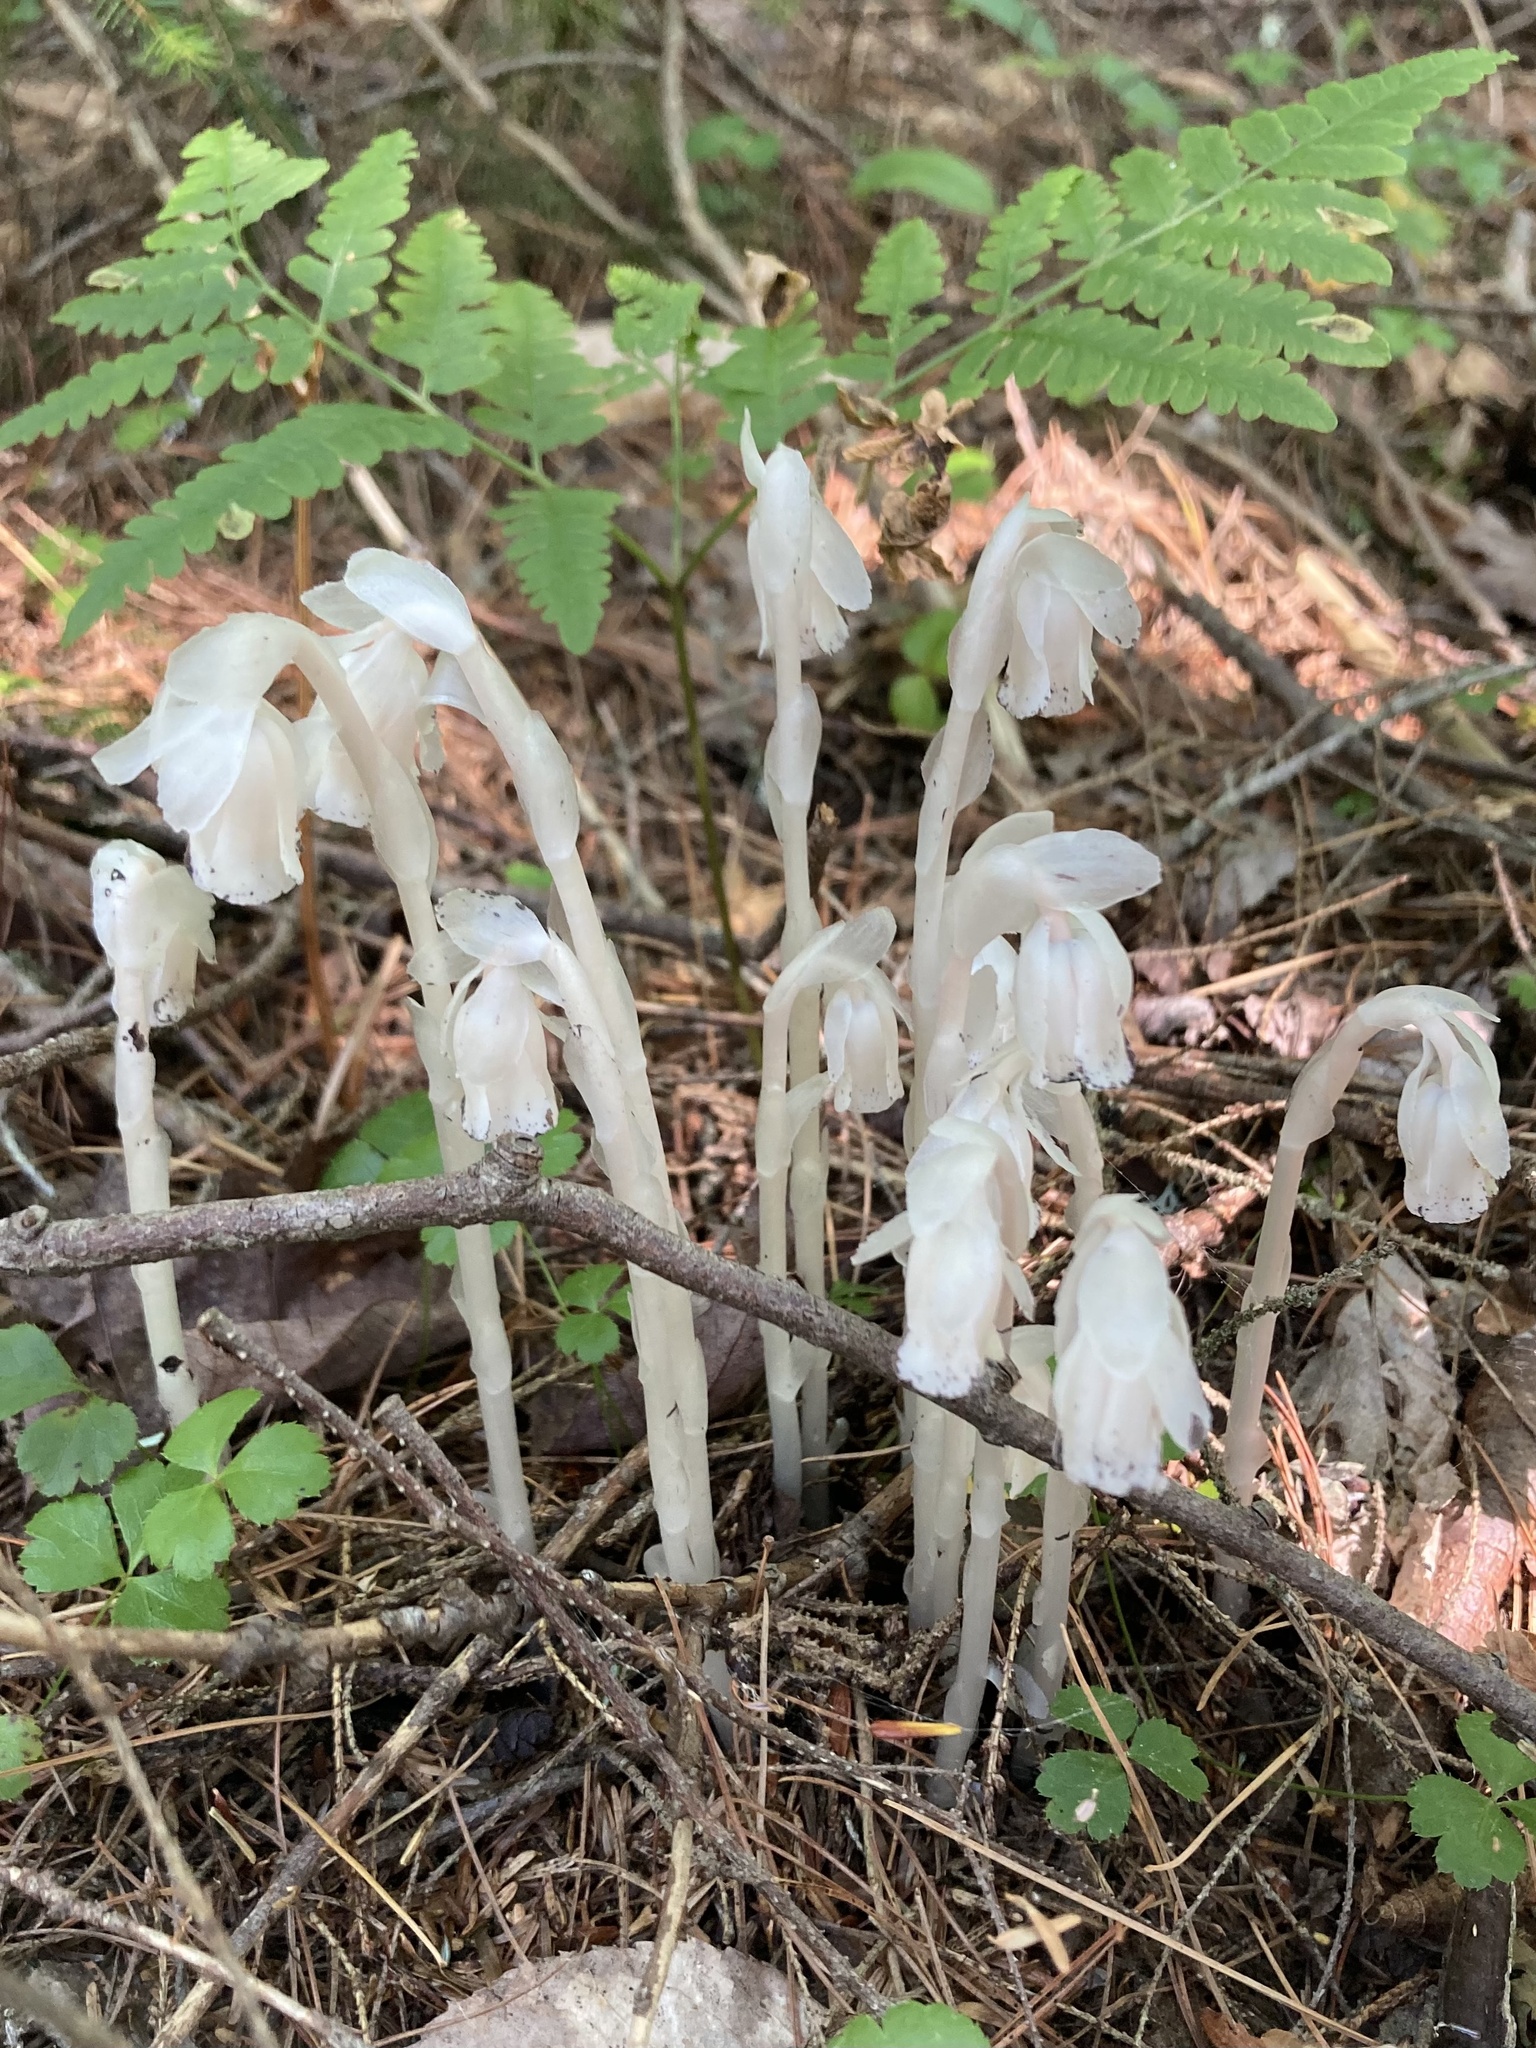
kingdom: Plantae
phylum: Tracheophyta
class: Magnoliopsida
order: Ericales
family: Ericaceae
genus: Monotropa
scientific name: Monotropa uniflora
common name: Convulsion root
